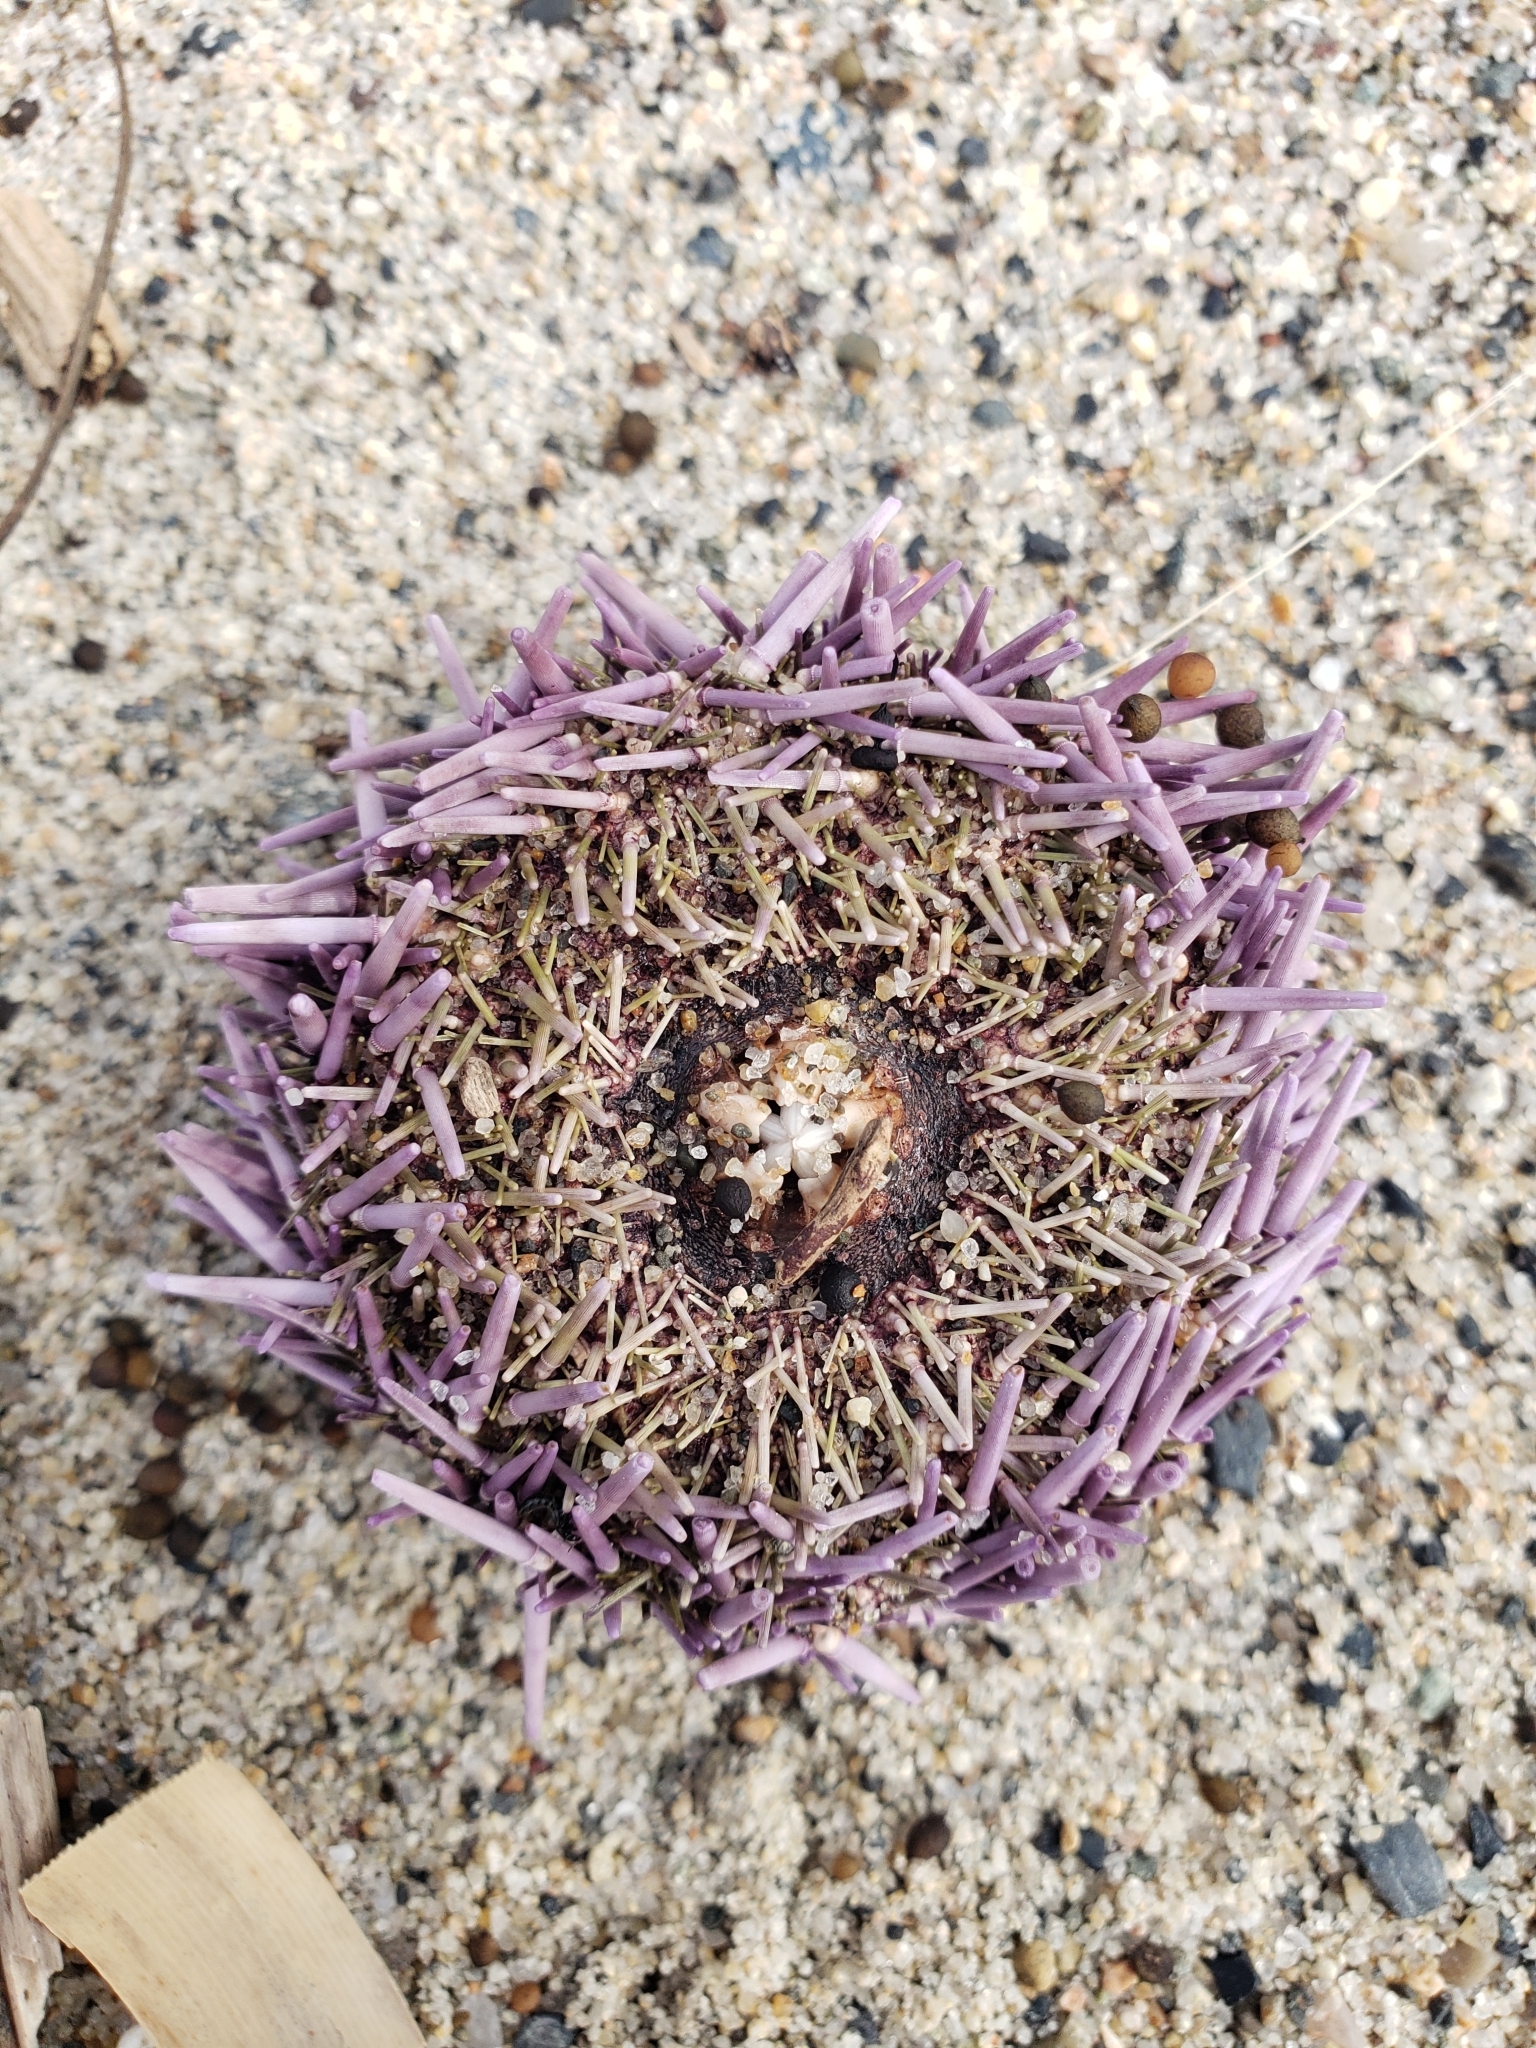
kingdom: Animalia
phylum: Echinodermata
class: Echinoidea
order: Camarodonta
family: Strongylocentrotidae
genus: Strongylocentrotus
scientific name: Strongylocentrotus purpuratus
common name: Purple sea urchin
